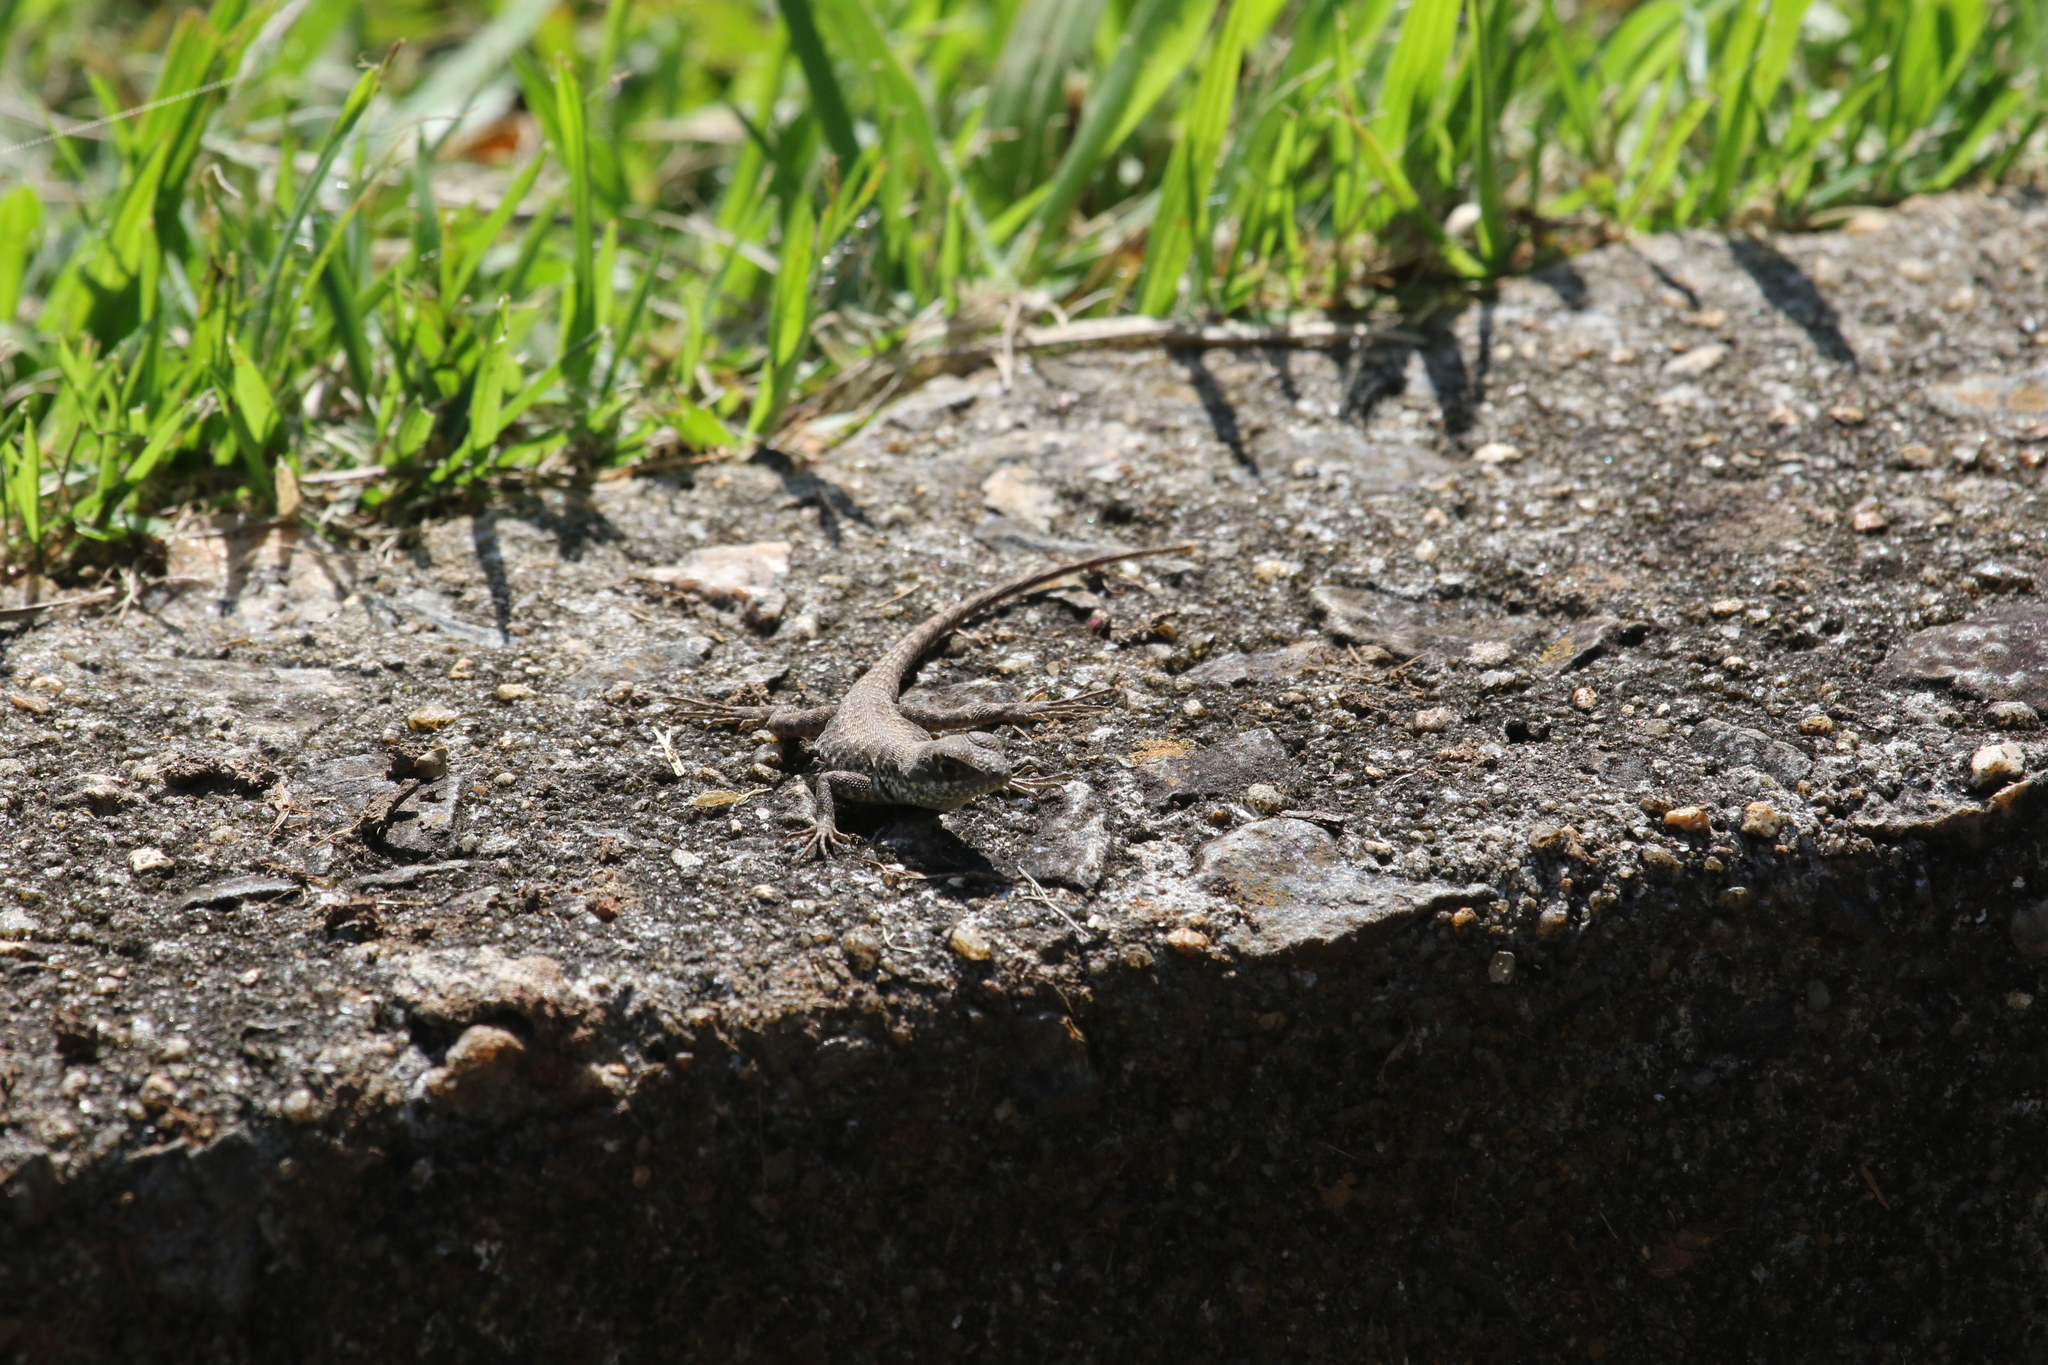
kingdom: Animalia
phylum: Chordata
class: Squamata
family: Tropiduridae
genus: Tropidurus
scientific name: Tropidurus catalanensis
